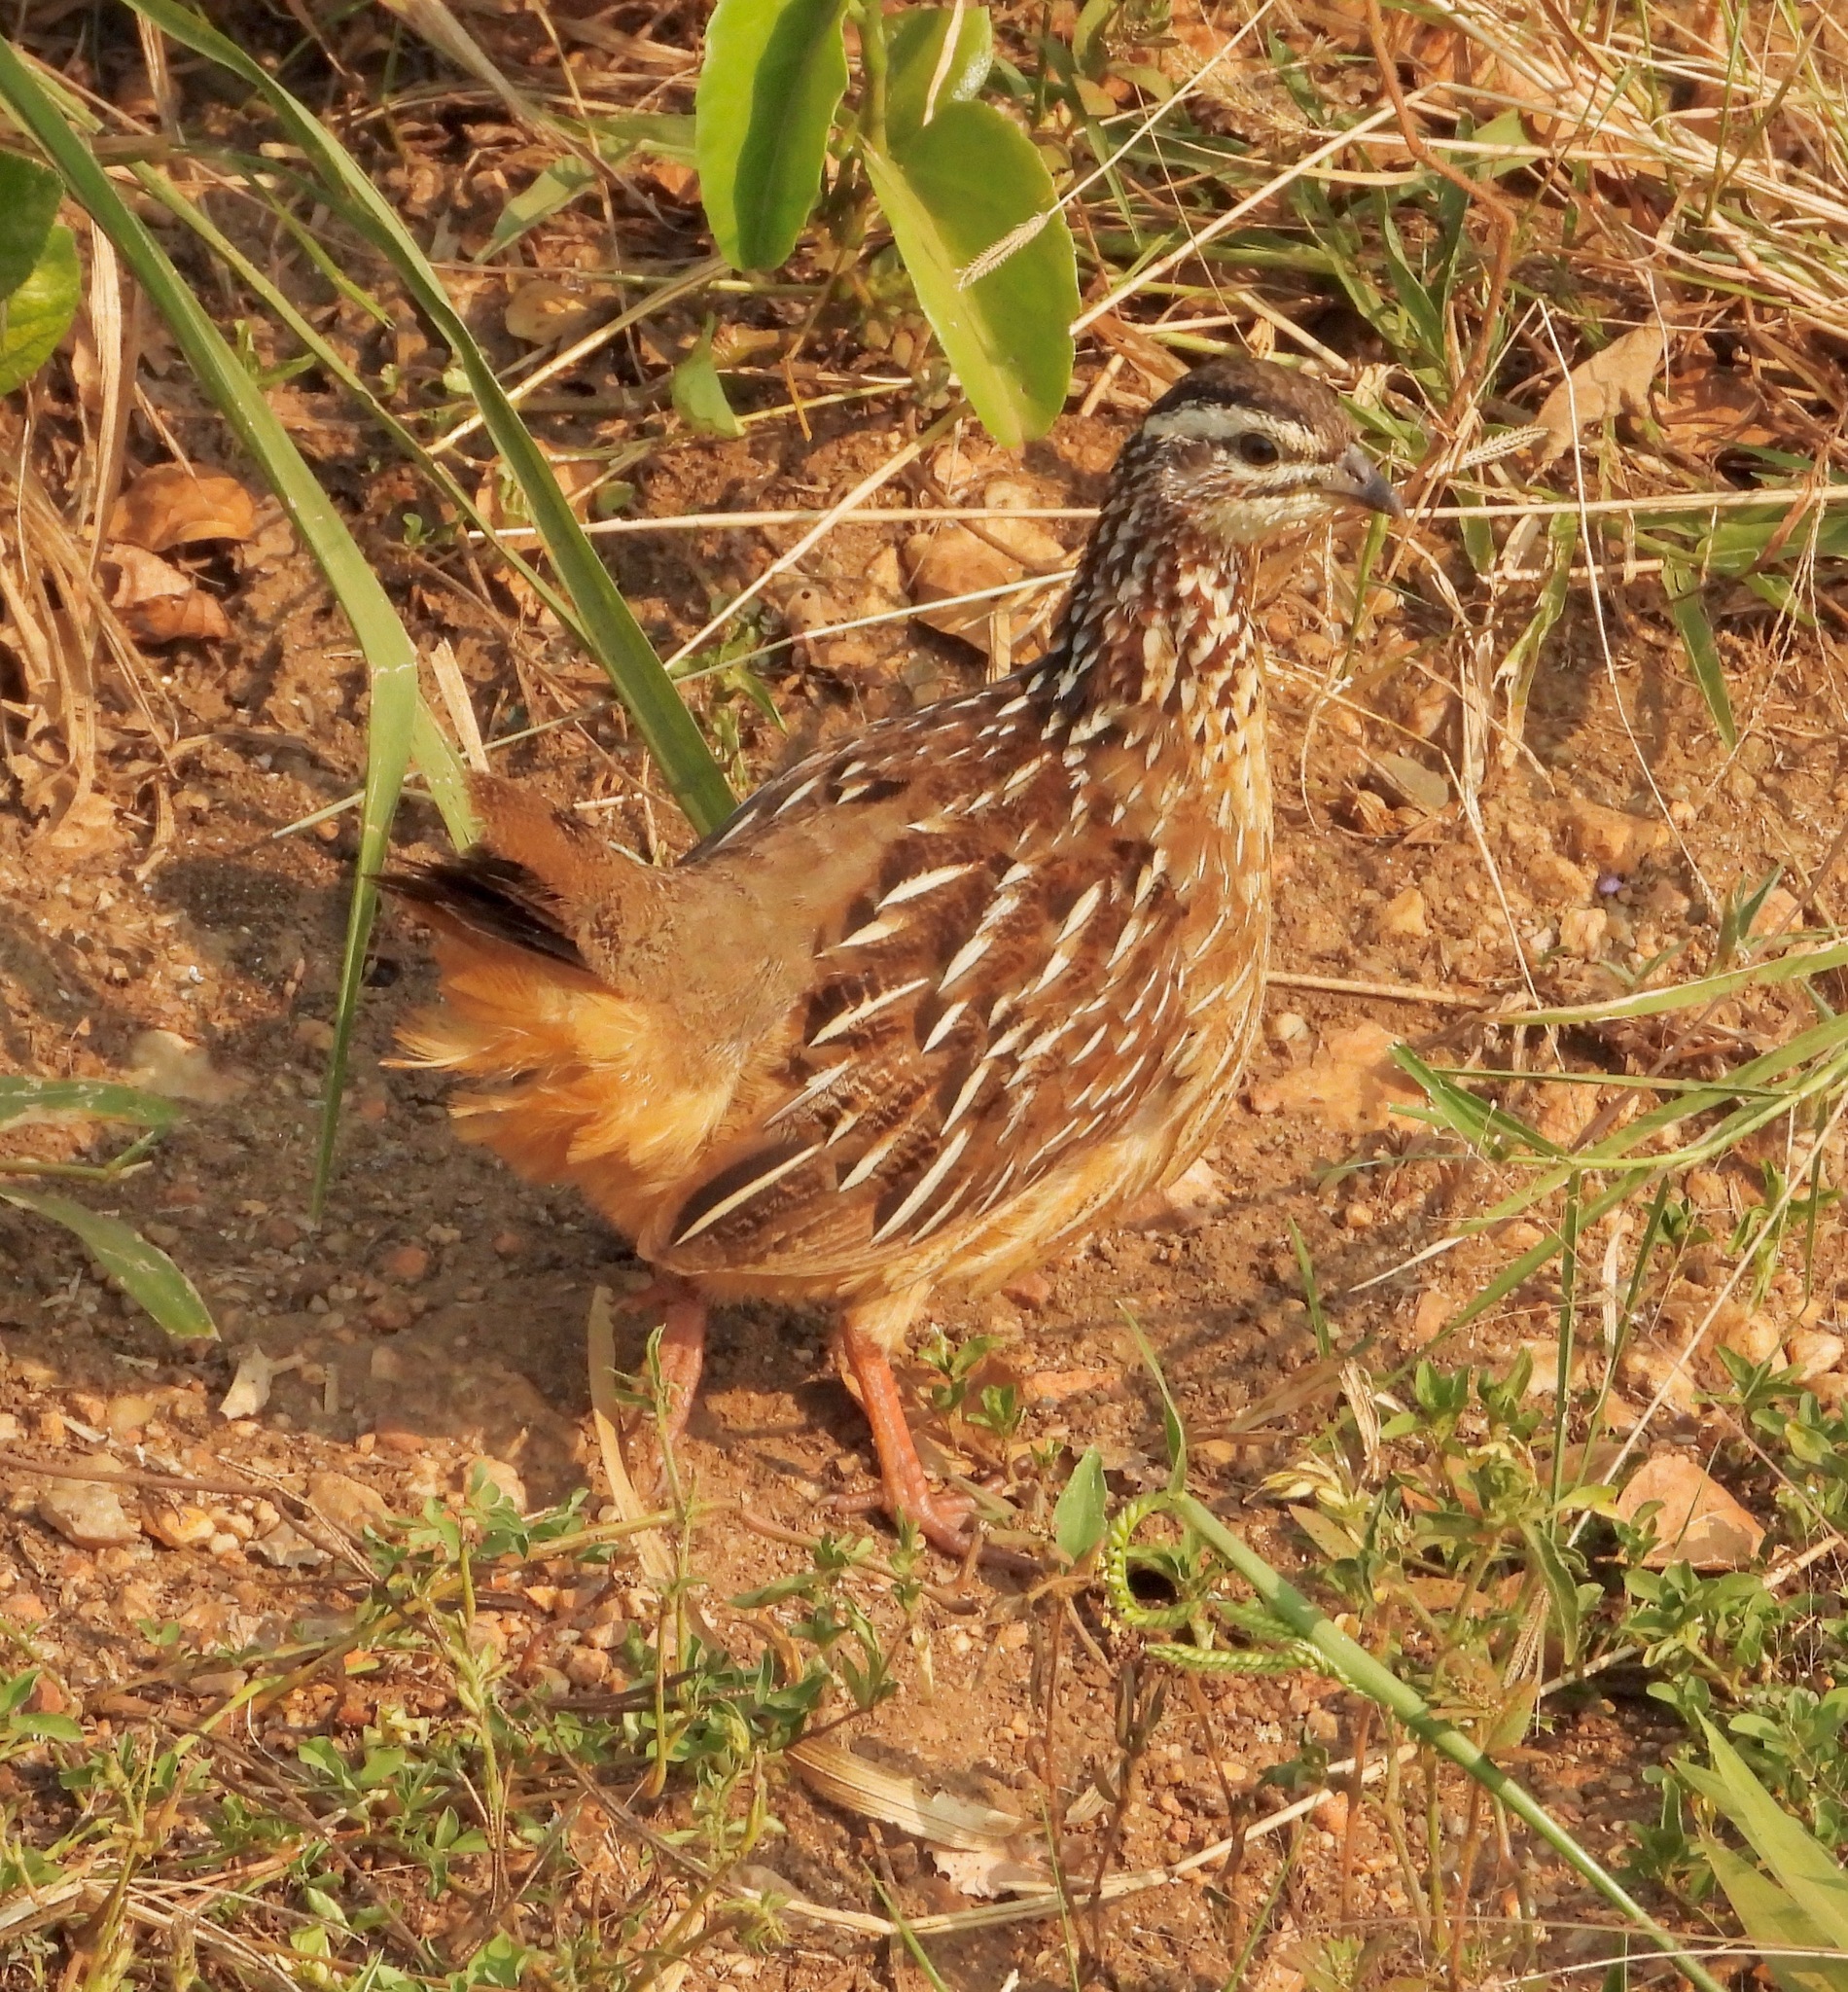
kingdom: Animalia
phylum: Chordata
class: Aves
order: Galliformes
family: Phasianidae
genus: Ortygornis
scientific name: Ortygornis sephaena
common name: Crested francolin
